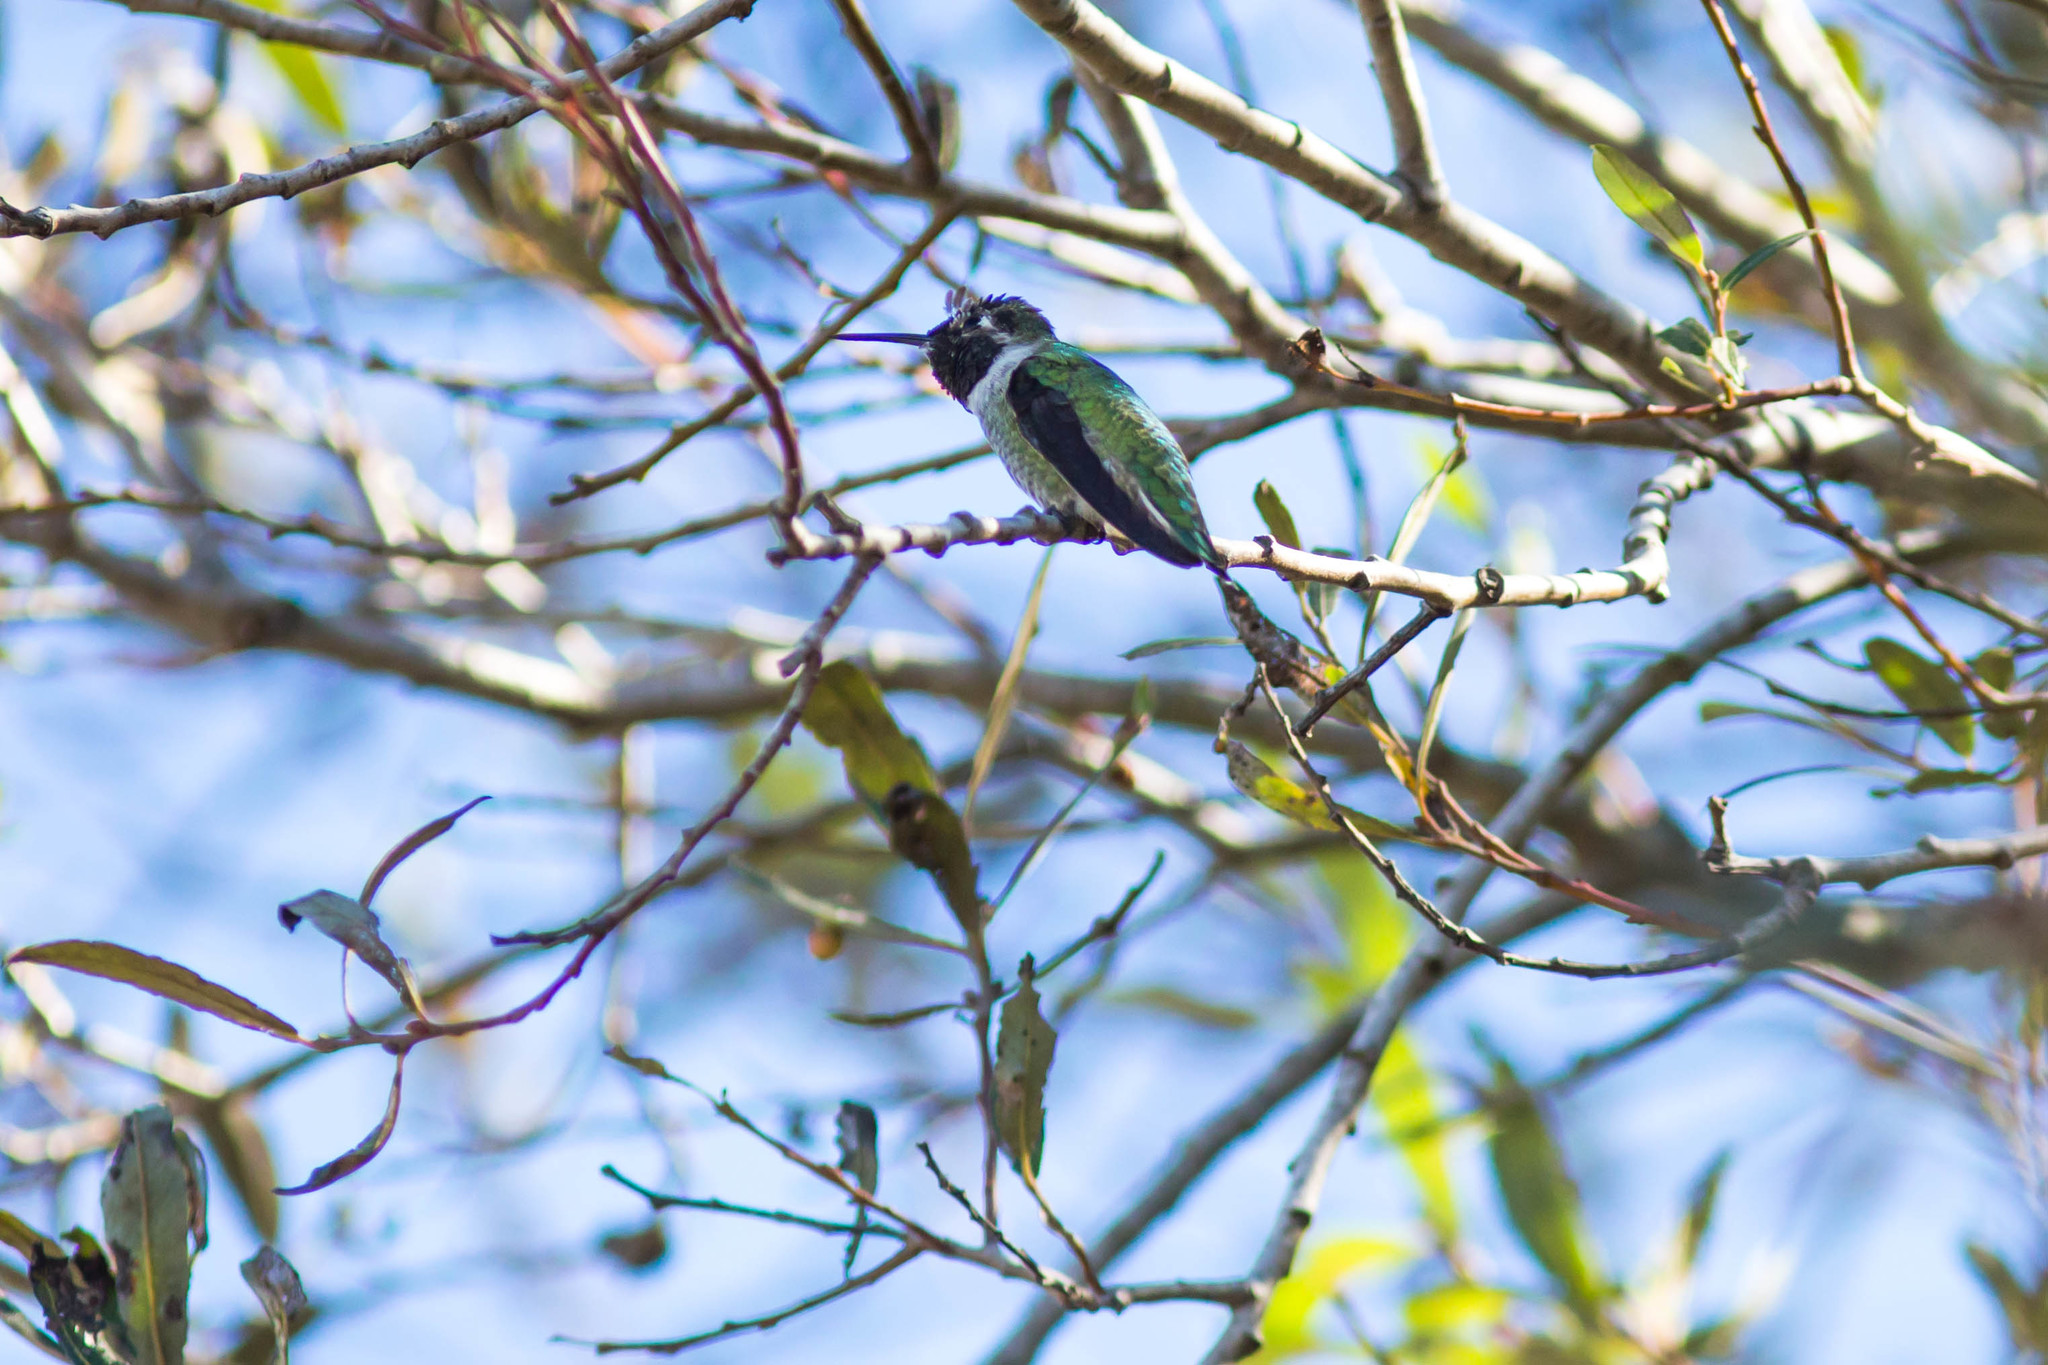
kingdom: Animalia
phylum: Chordata
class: Aves
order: Apodiformes
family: Trochilidae
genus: Calypte
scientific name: Calypte anna
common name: Anna's hummingbird
